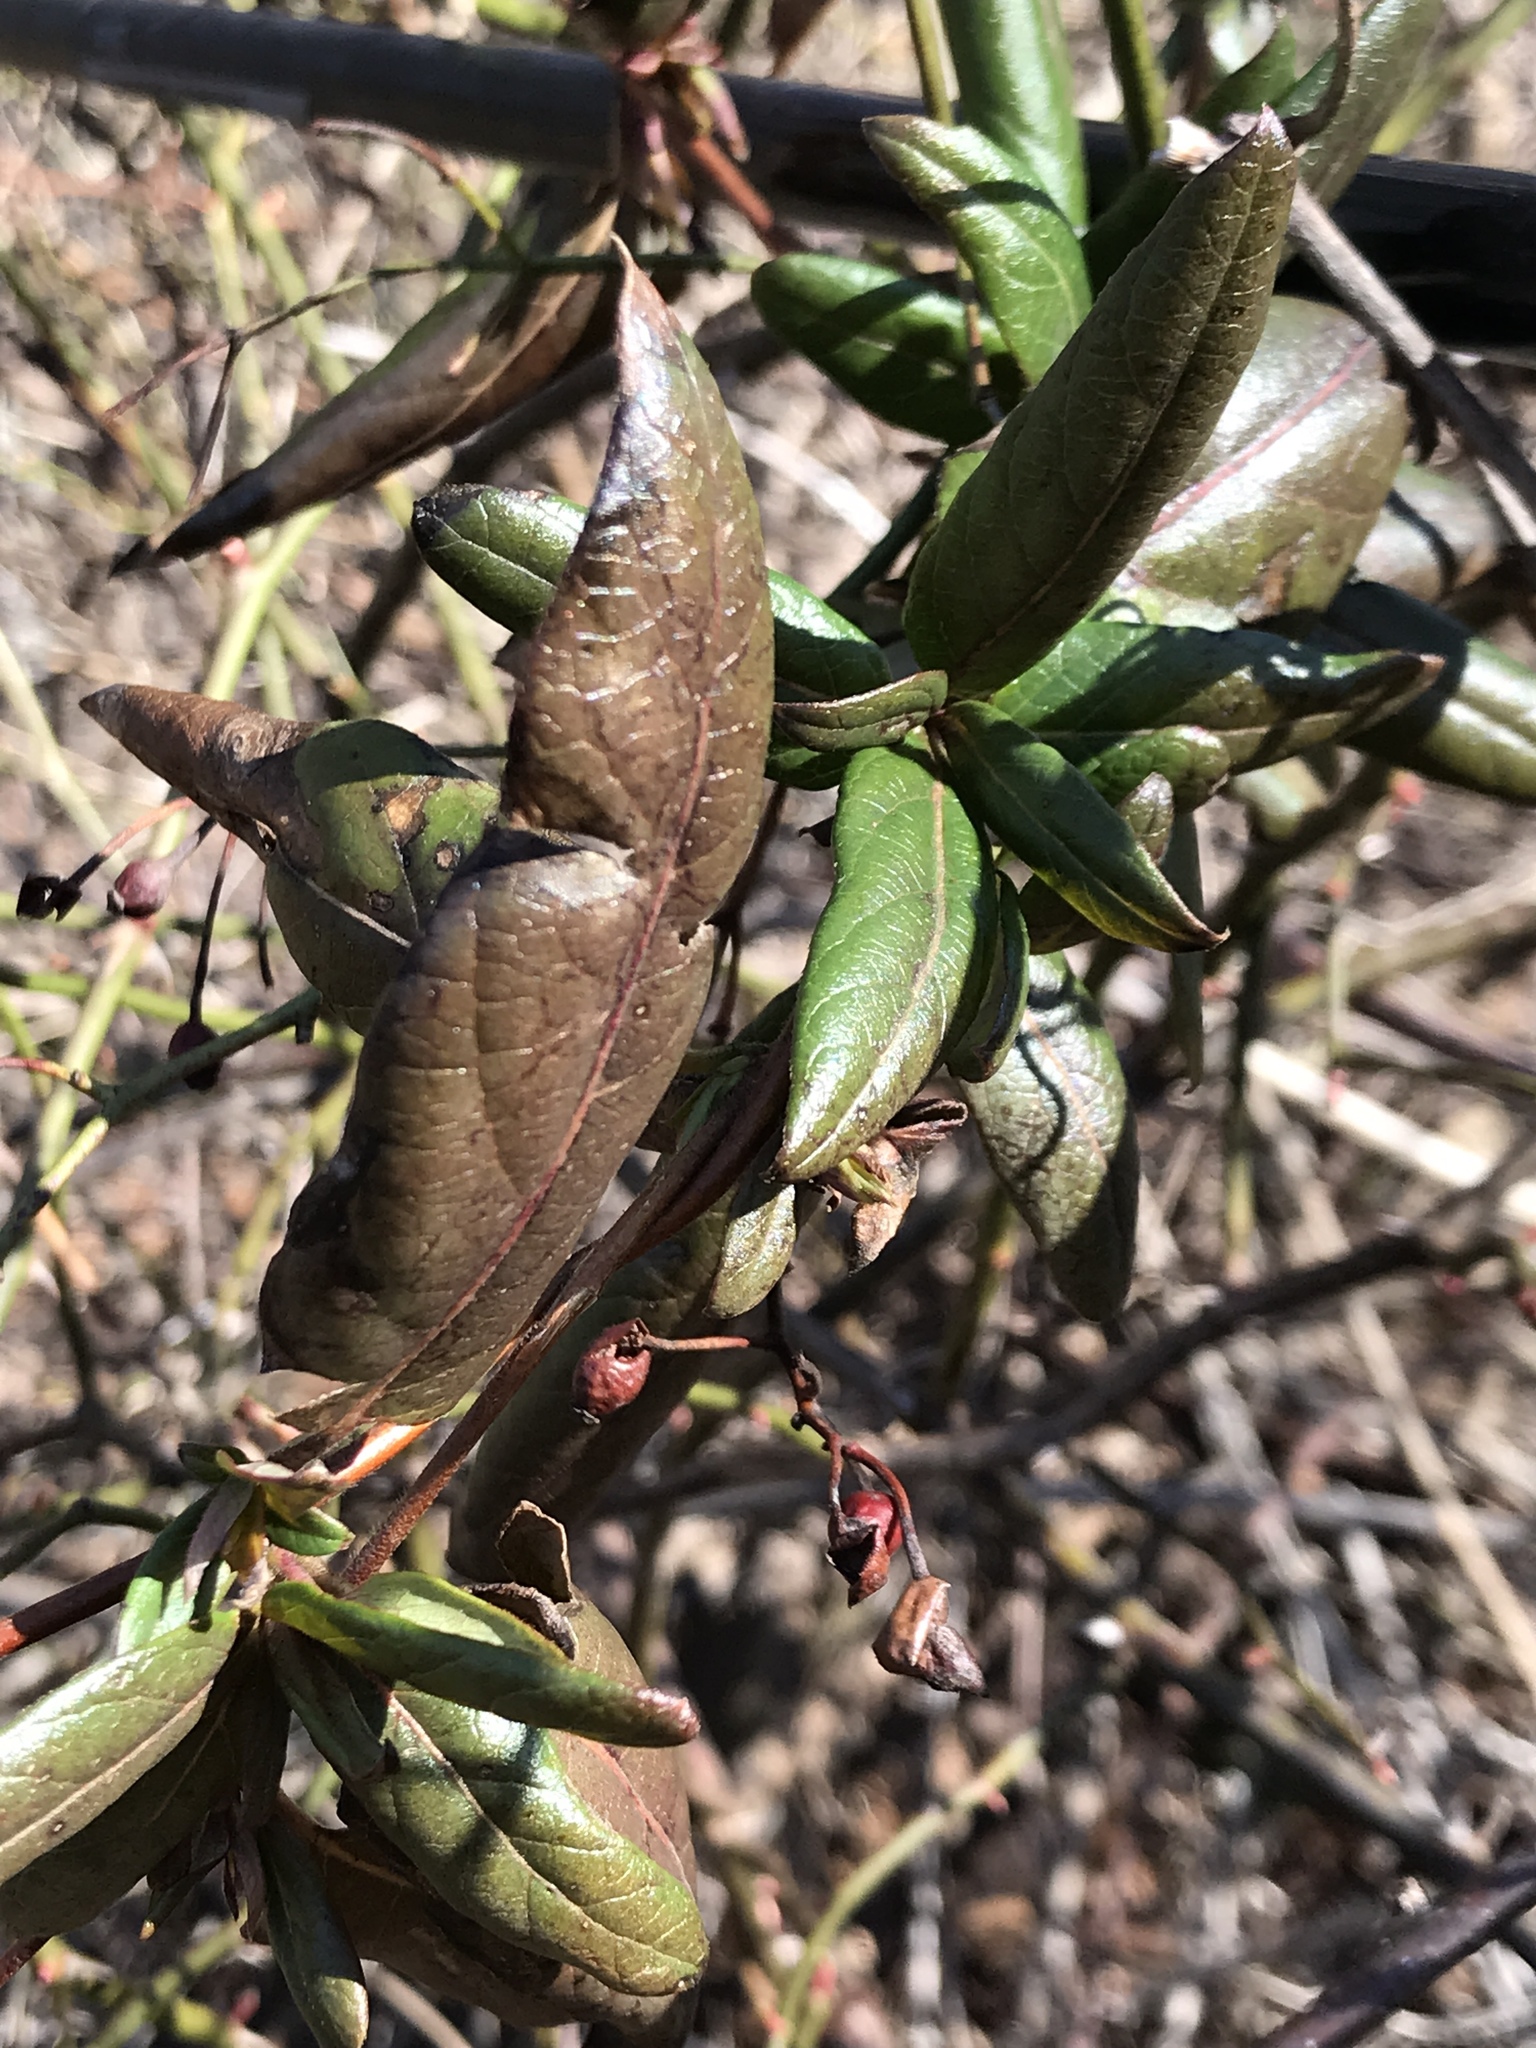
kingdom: Plantae
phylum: Tracheophyta
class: Magnoliopsida
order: Dipsacales
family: Caprifoliaceae
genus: Lonicera
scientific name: Lonicera japonica
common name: Japanese honeysuckle
